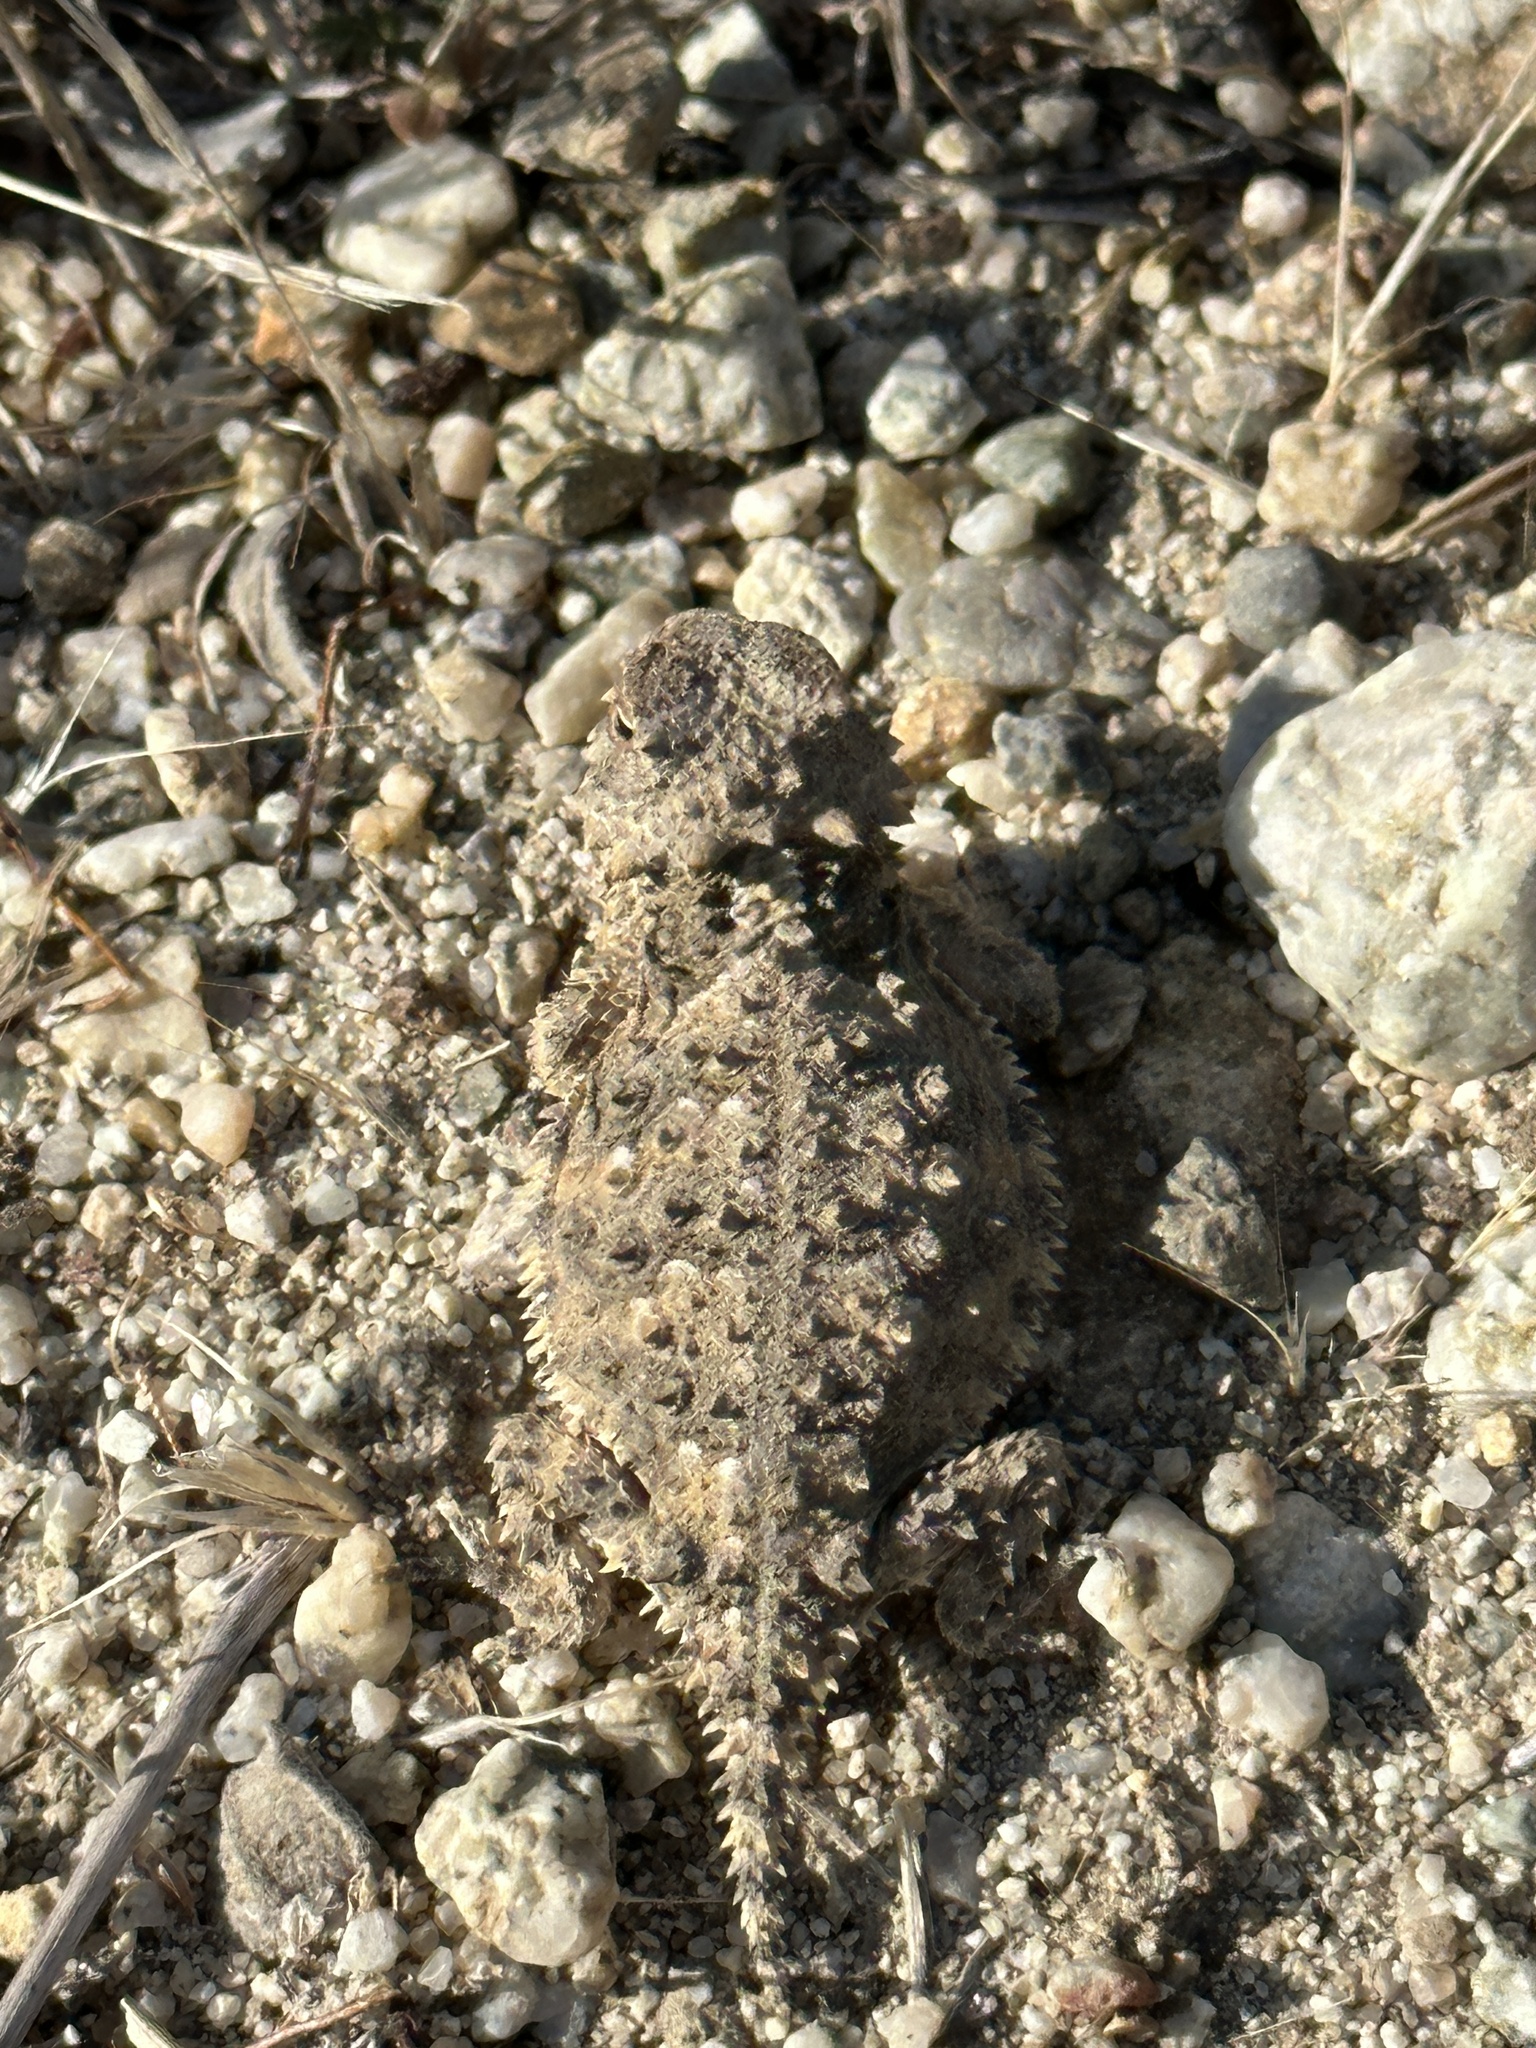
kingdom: Animalia
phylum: Chordata
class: Squamata
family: Phrynosomatidae
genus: Phrynosoma
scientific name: Phrynosoma blainvillii
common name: San diego horned lizard
